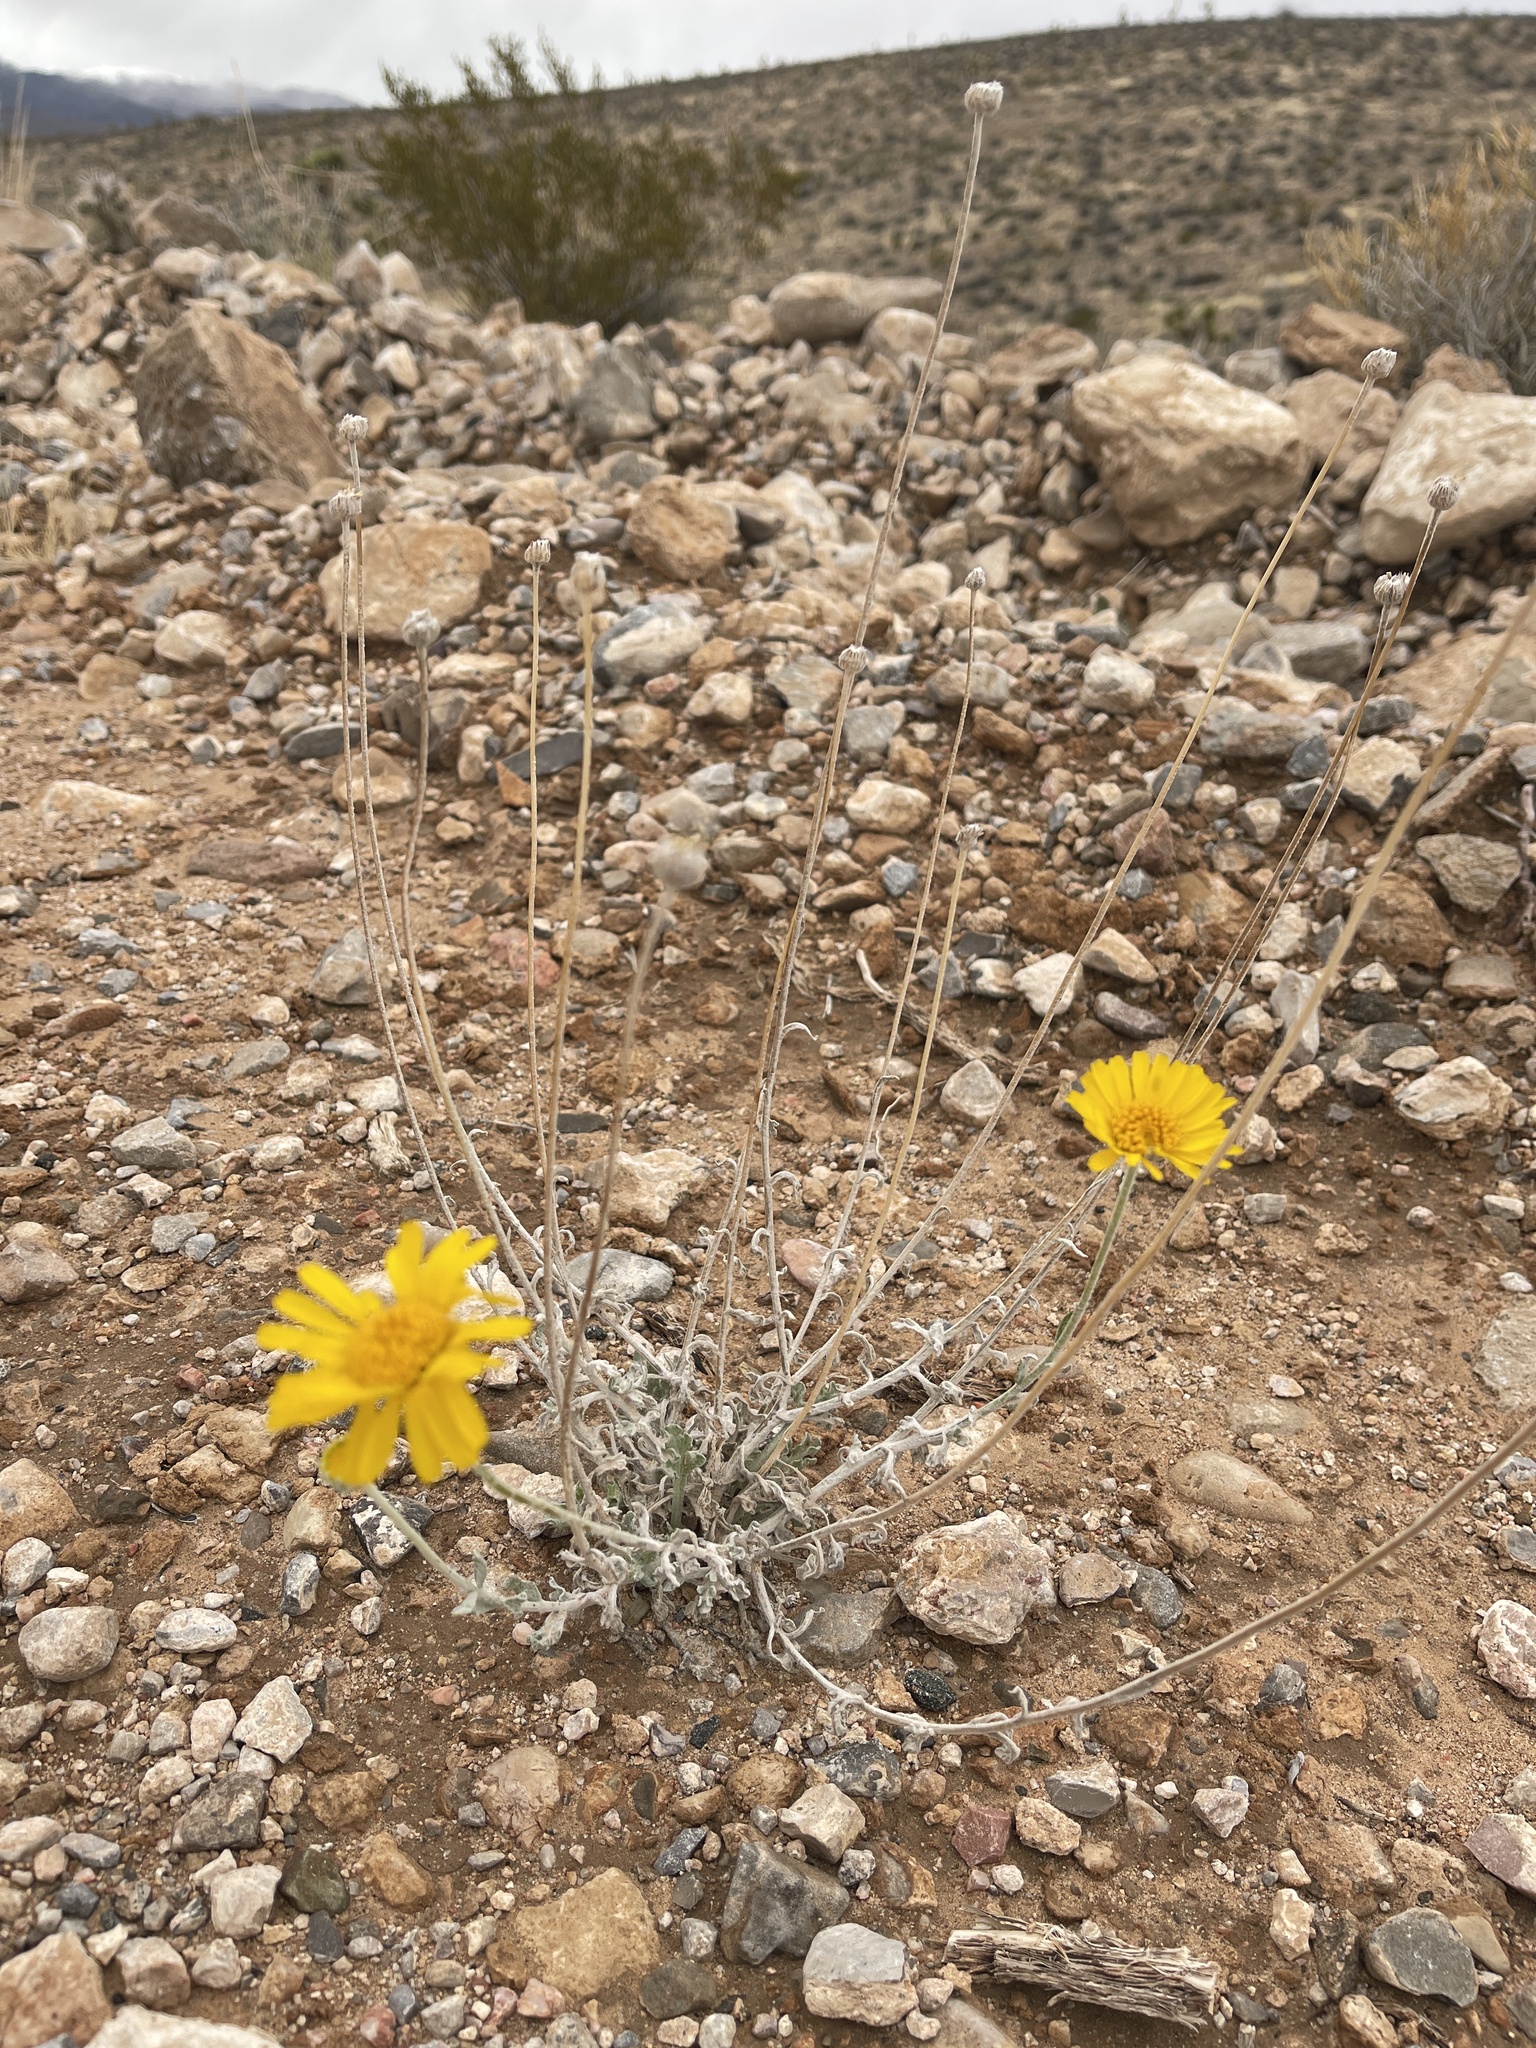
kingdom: Plantae
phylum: Tracheophyta
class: Magnoliopsida
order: Asterales
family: Asteraceae
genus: Baileya
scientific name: Baileya multiradiata
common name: Desert-marigold
